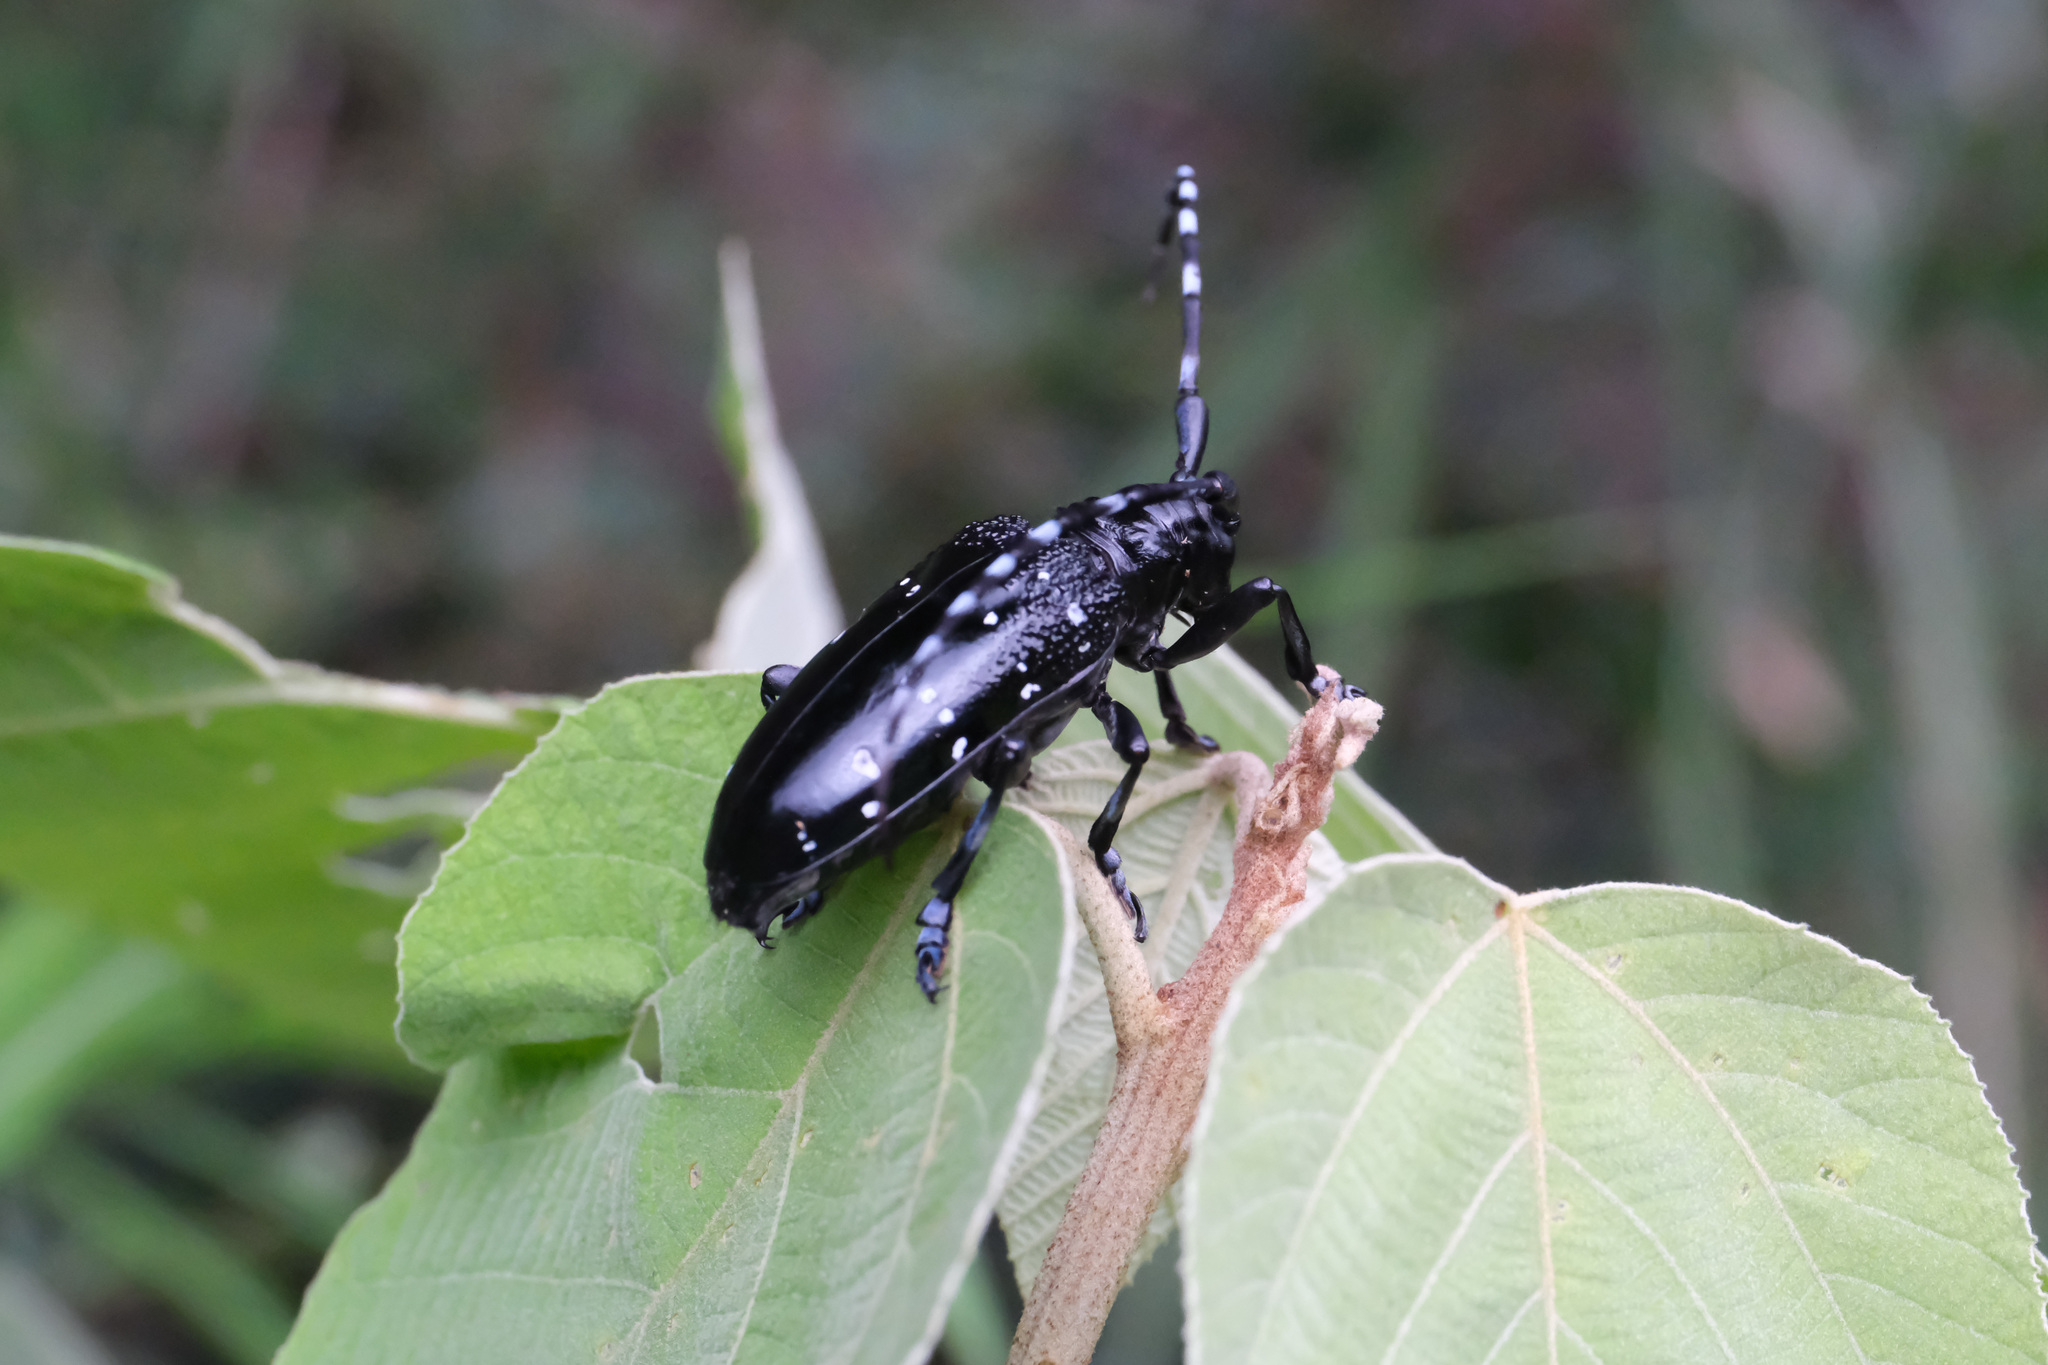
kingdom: Animalia
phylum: Arthropoda
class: Insecta
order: Coleoptera
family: Cerambycidae
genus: Anoplophora
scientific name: Anoplophora chinensis
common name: Citrus longhorned beetle
